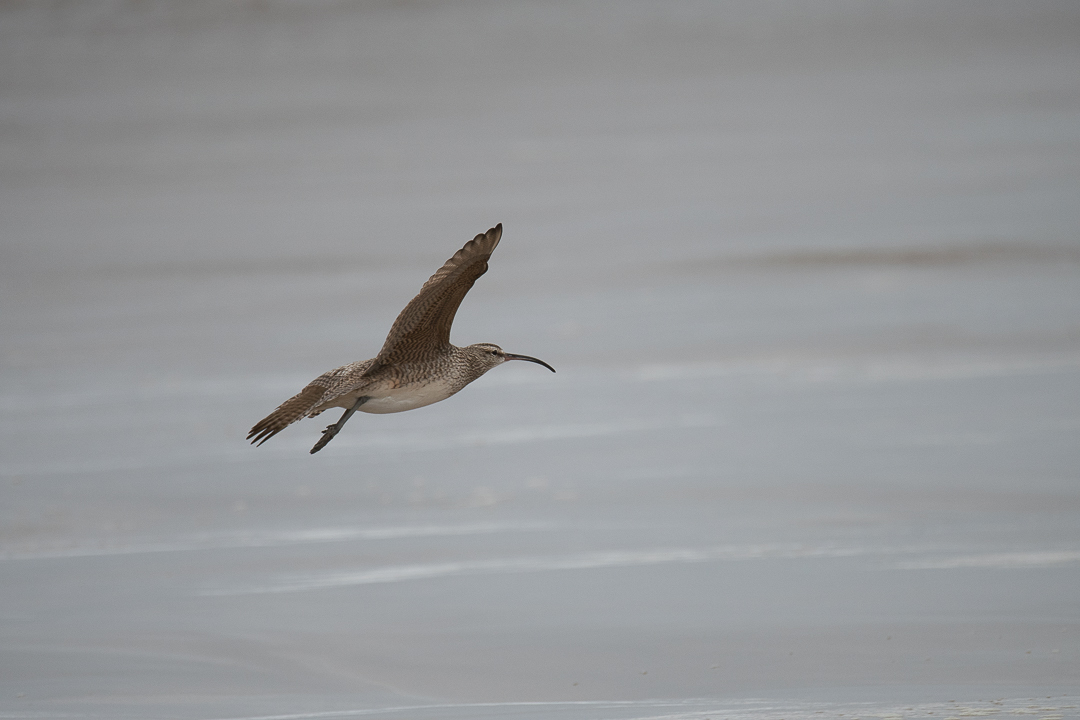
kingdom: Animalia
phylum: Chordata
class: Aves
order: Charadriiformes
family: Scolopacidae
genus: Numenius
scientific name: Numenius phaeopus
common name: Whimbrel
